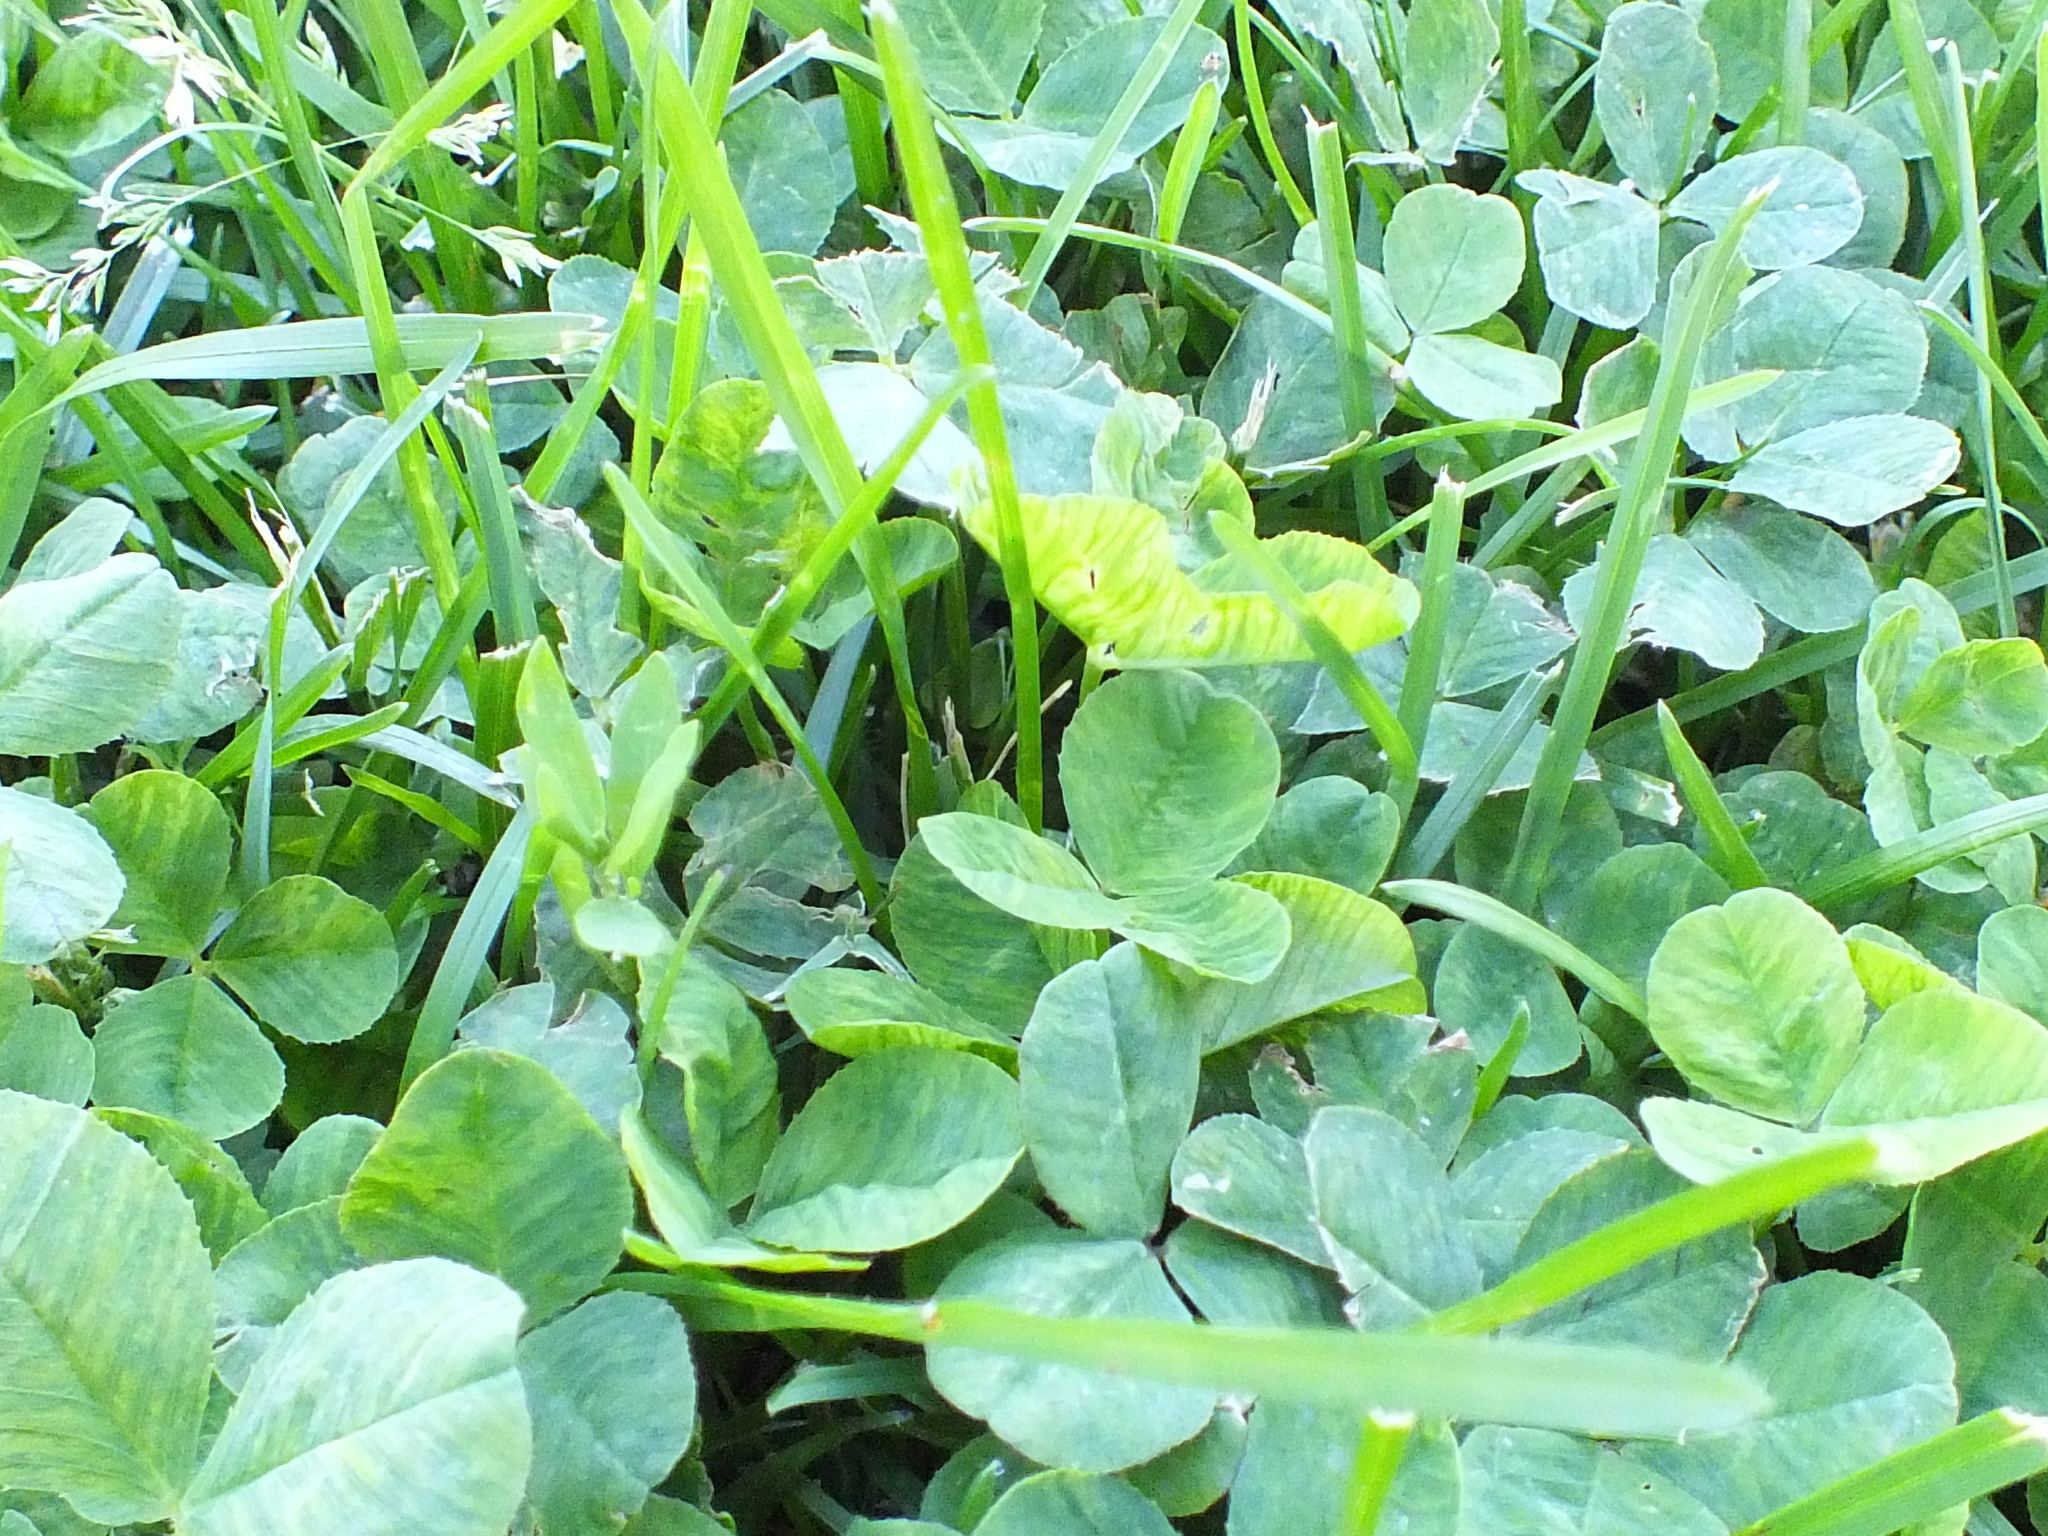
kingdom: Plantae
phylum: Tracheophyta
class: Magnoliopsida
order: Fabales
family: Fabaceae
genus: Trifolium
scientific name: Trifolium repens
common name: White clover
